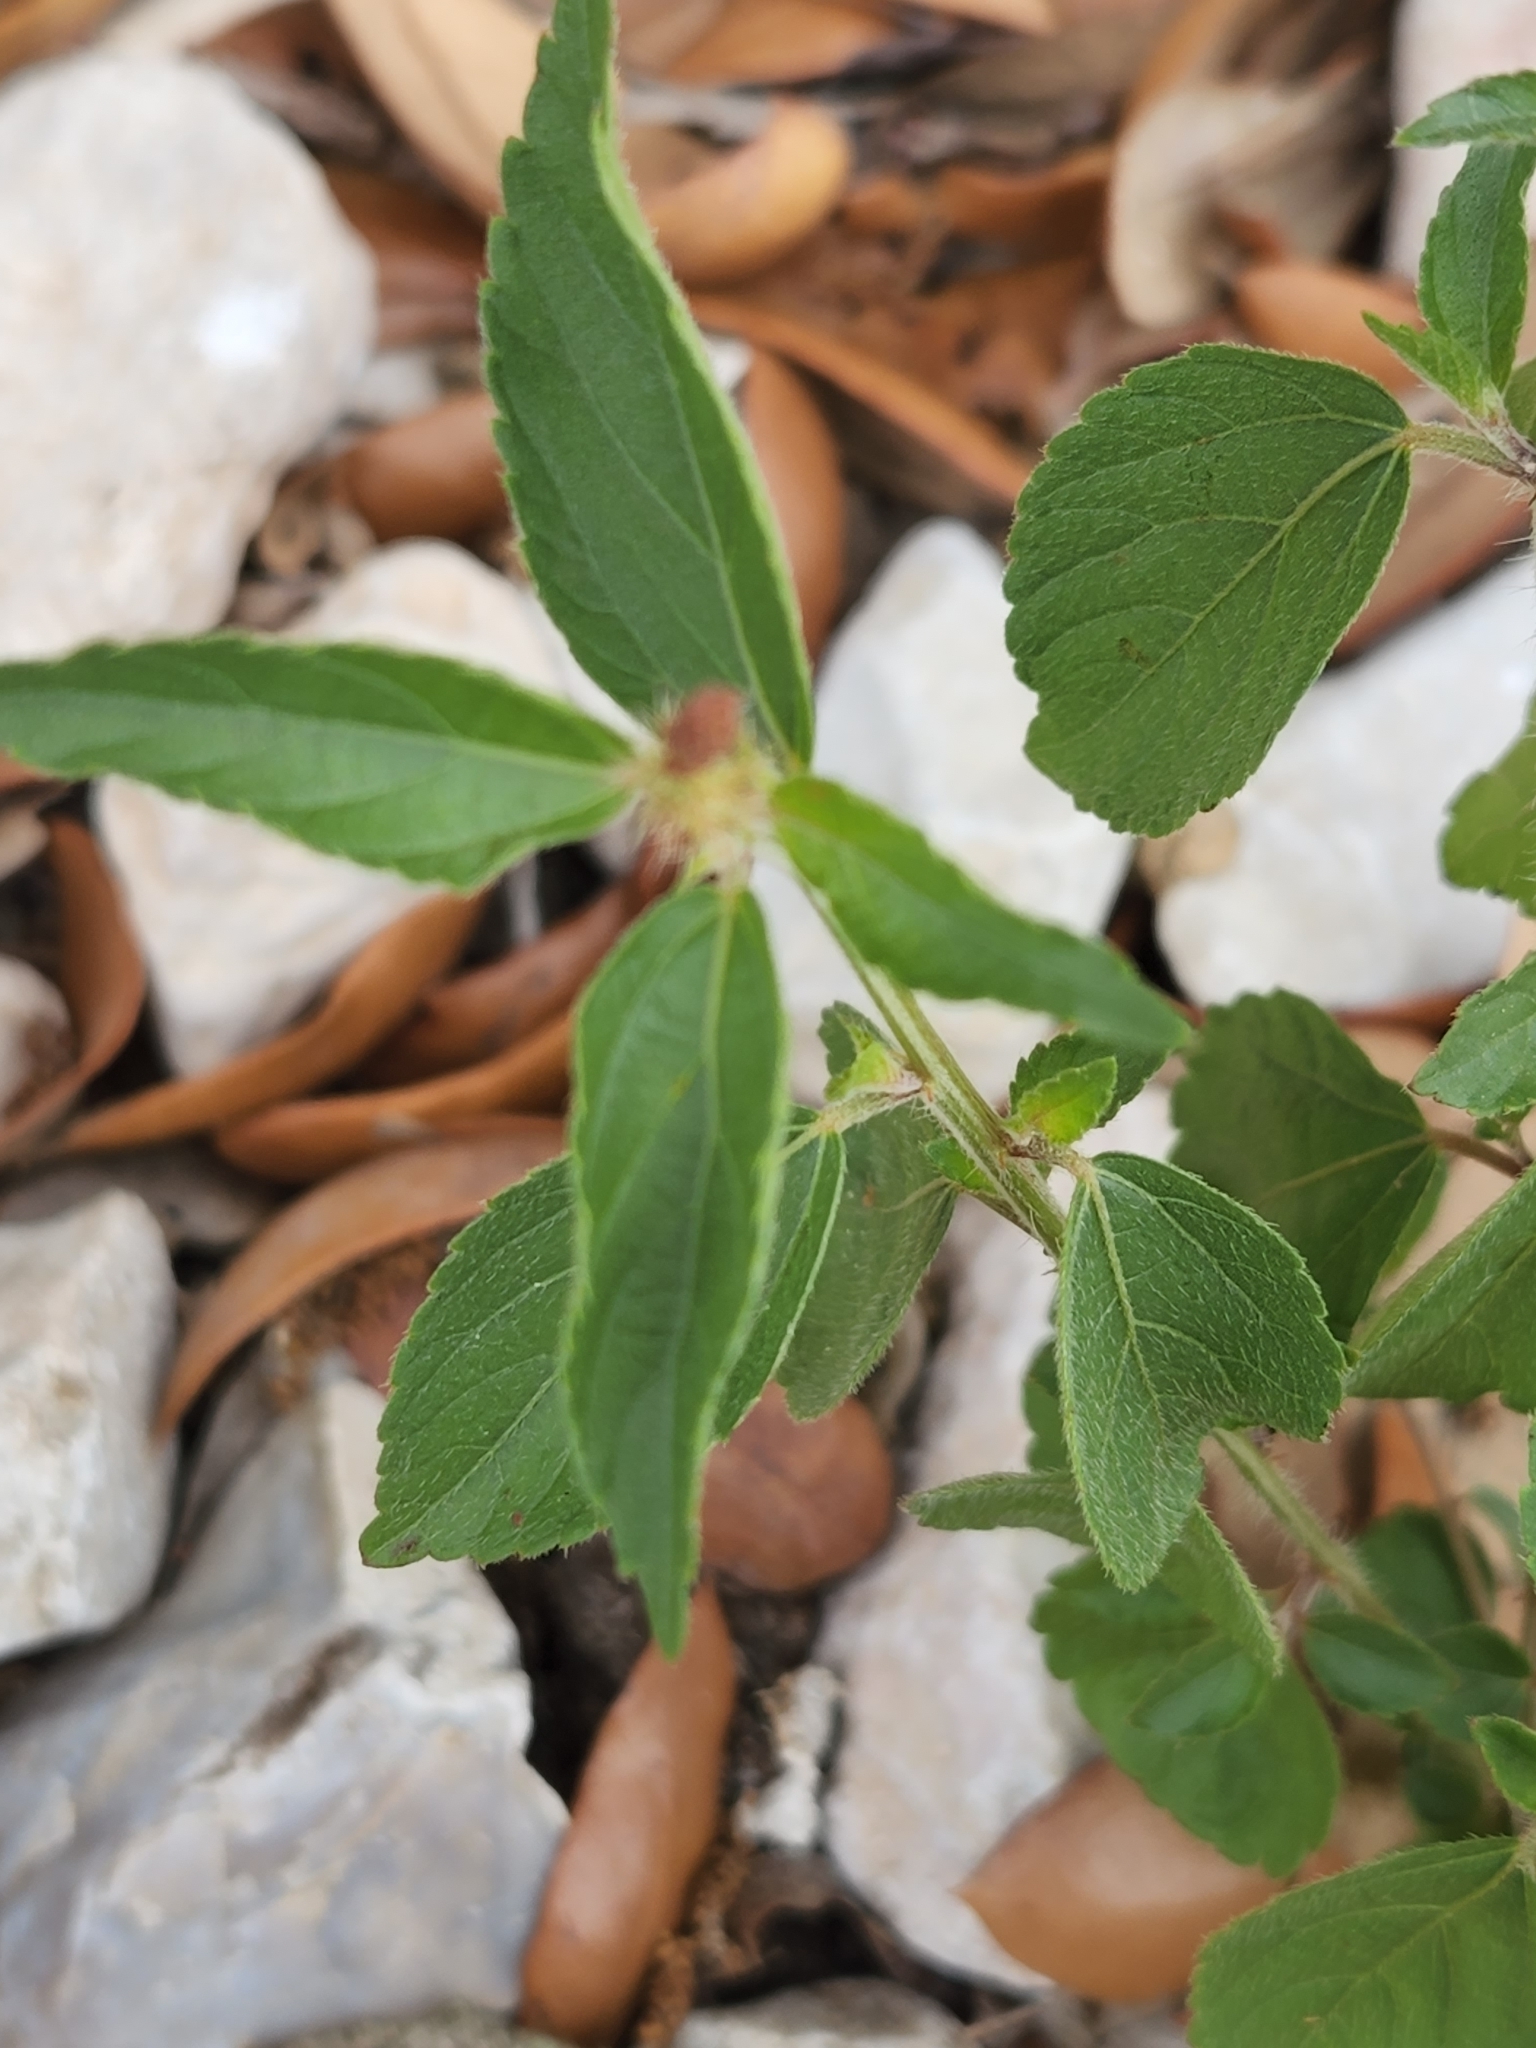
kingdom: Plantae
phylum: Tracheophyta
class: Magnoliopsida
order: Malpighiales
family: Euphorbiaceae
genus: Acalypha
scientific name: Acalypha phleoides
